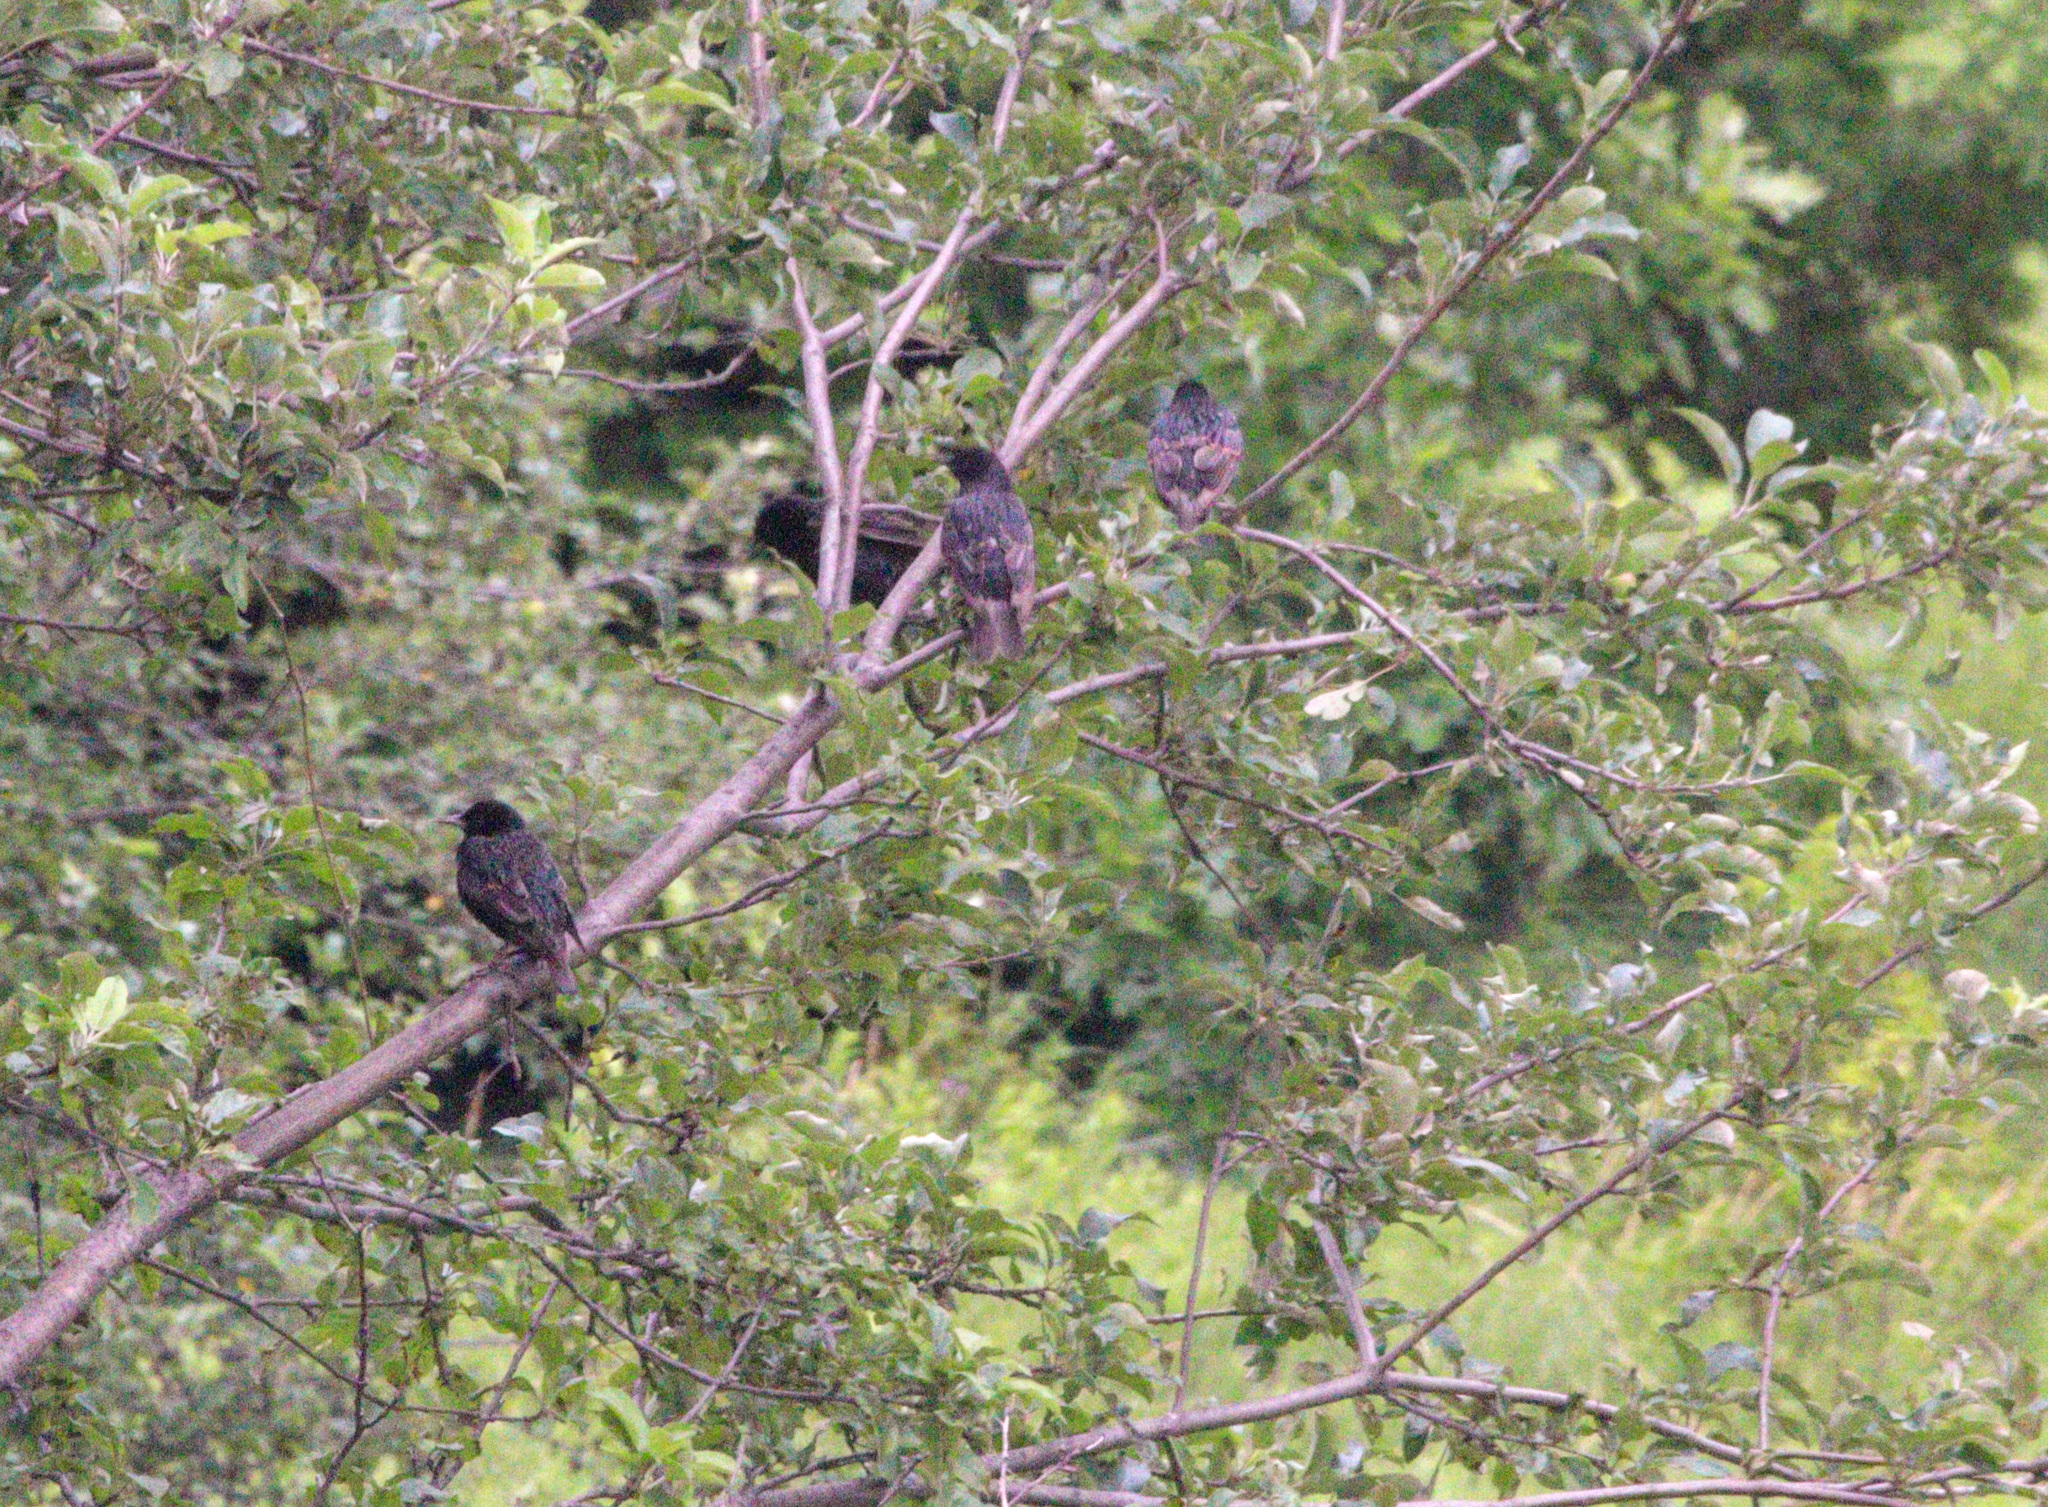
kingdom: Animalia
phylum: Chordata
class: Aves
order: Passeriformes
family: Sturnidae
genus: Sturnus
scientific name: Sturnus vulgaris
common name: Common starling
